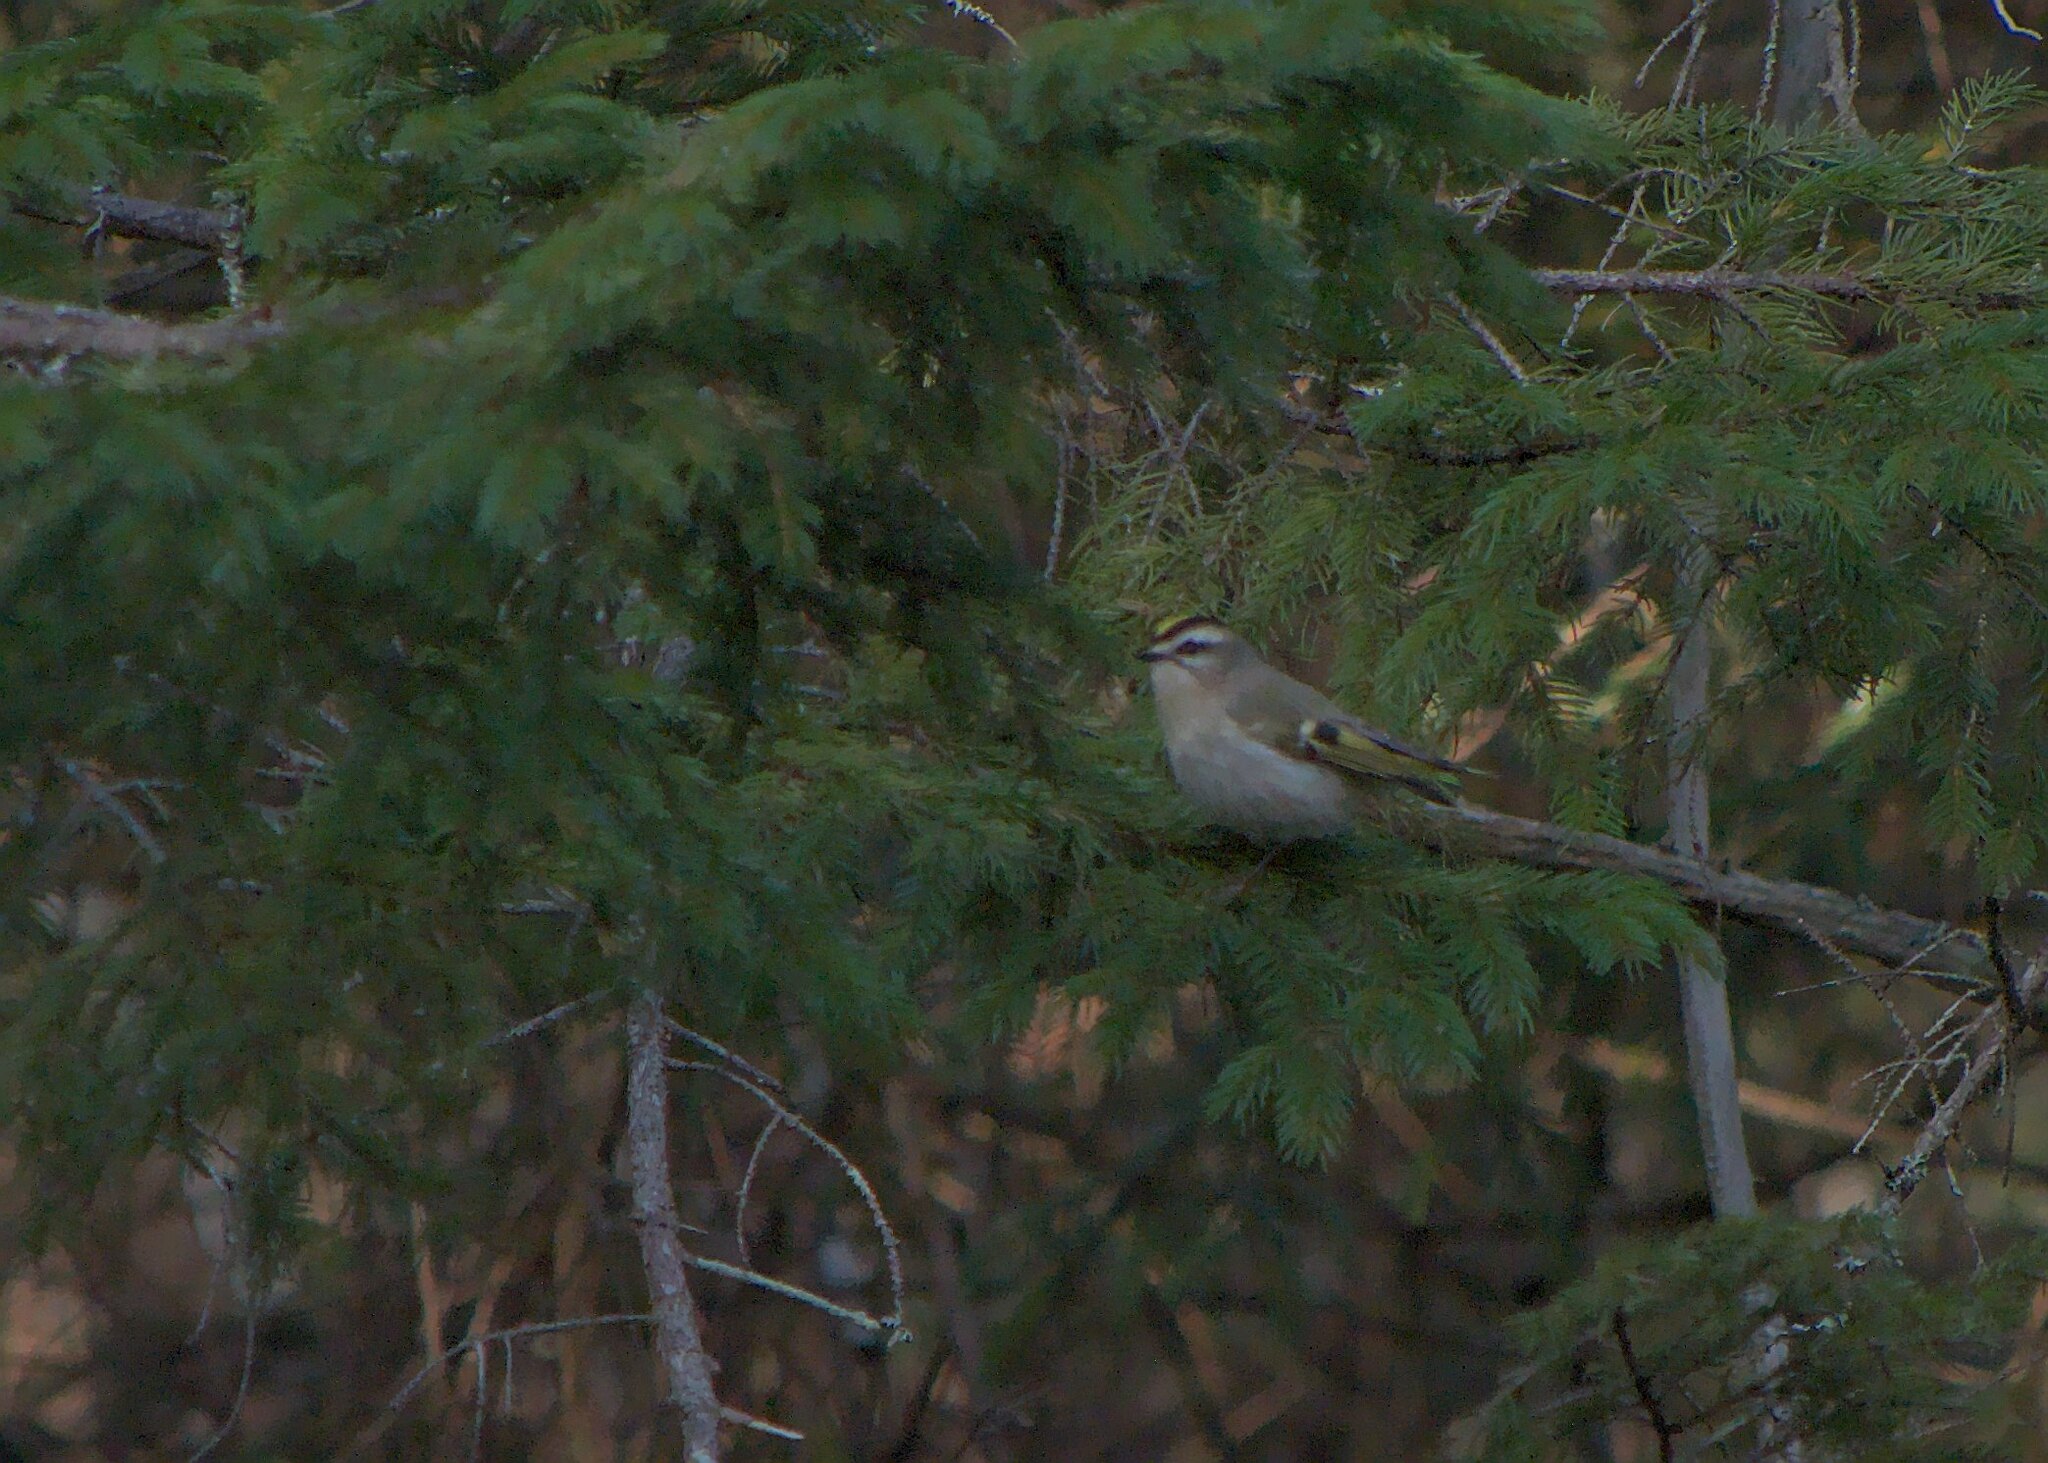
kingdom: Animalia
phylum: Chordata
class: Aves
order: Passeriformes
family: Regulidae
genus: Regulus
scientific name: Regulus satrapa
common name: Golden-crowned kinglet
